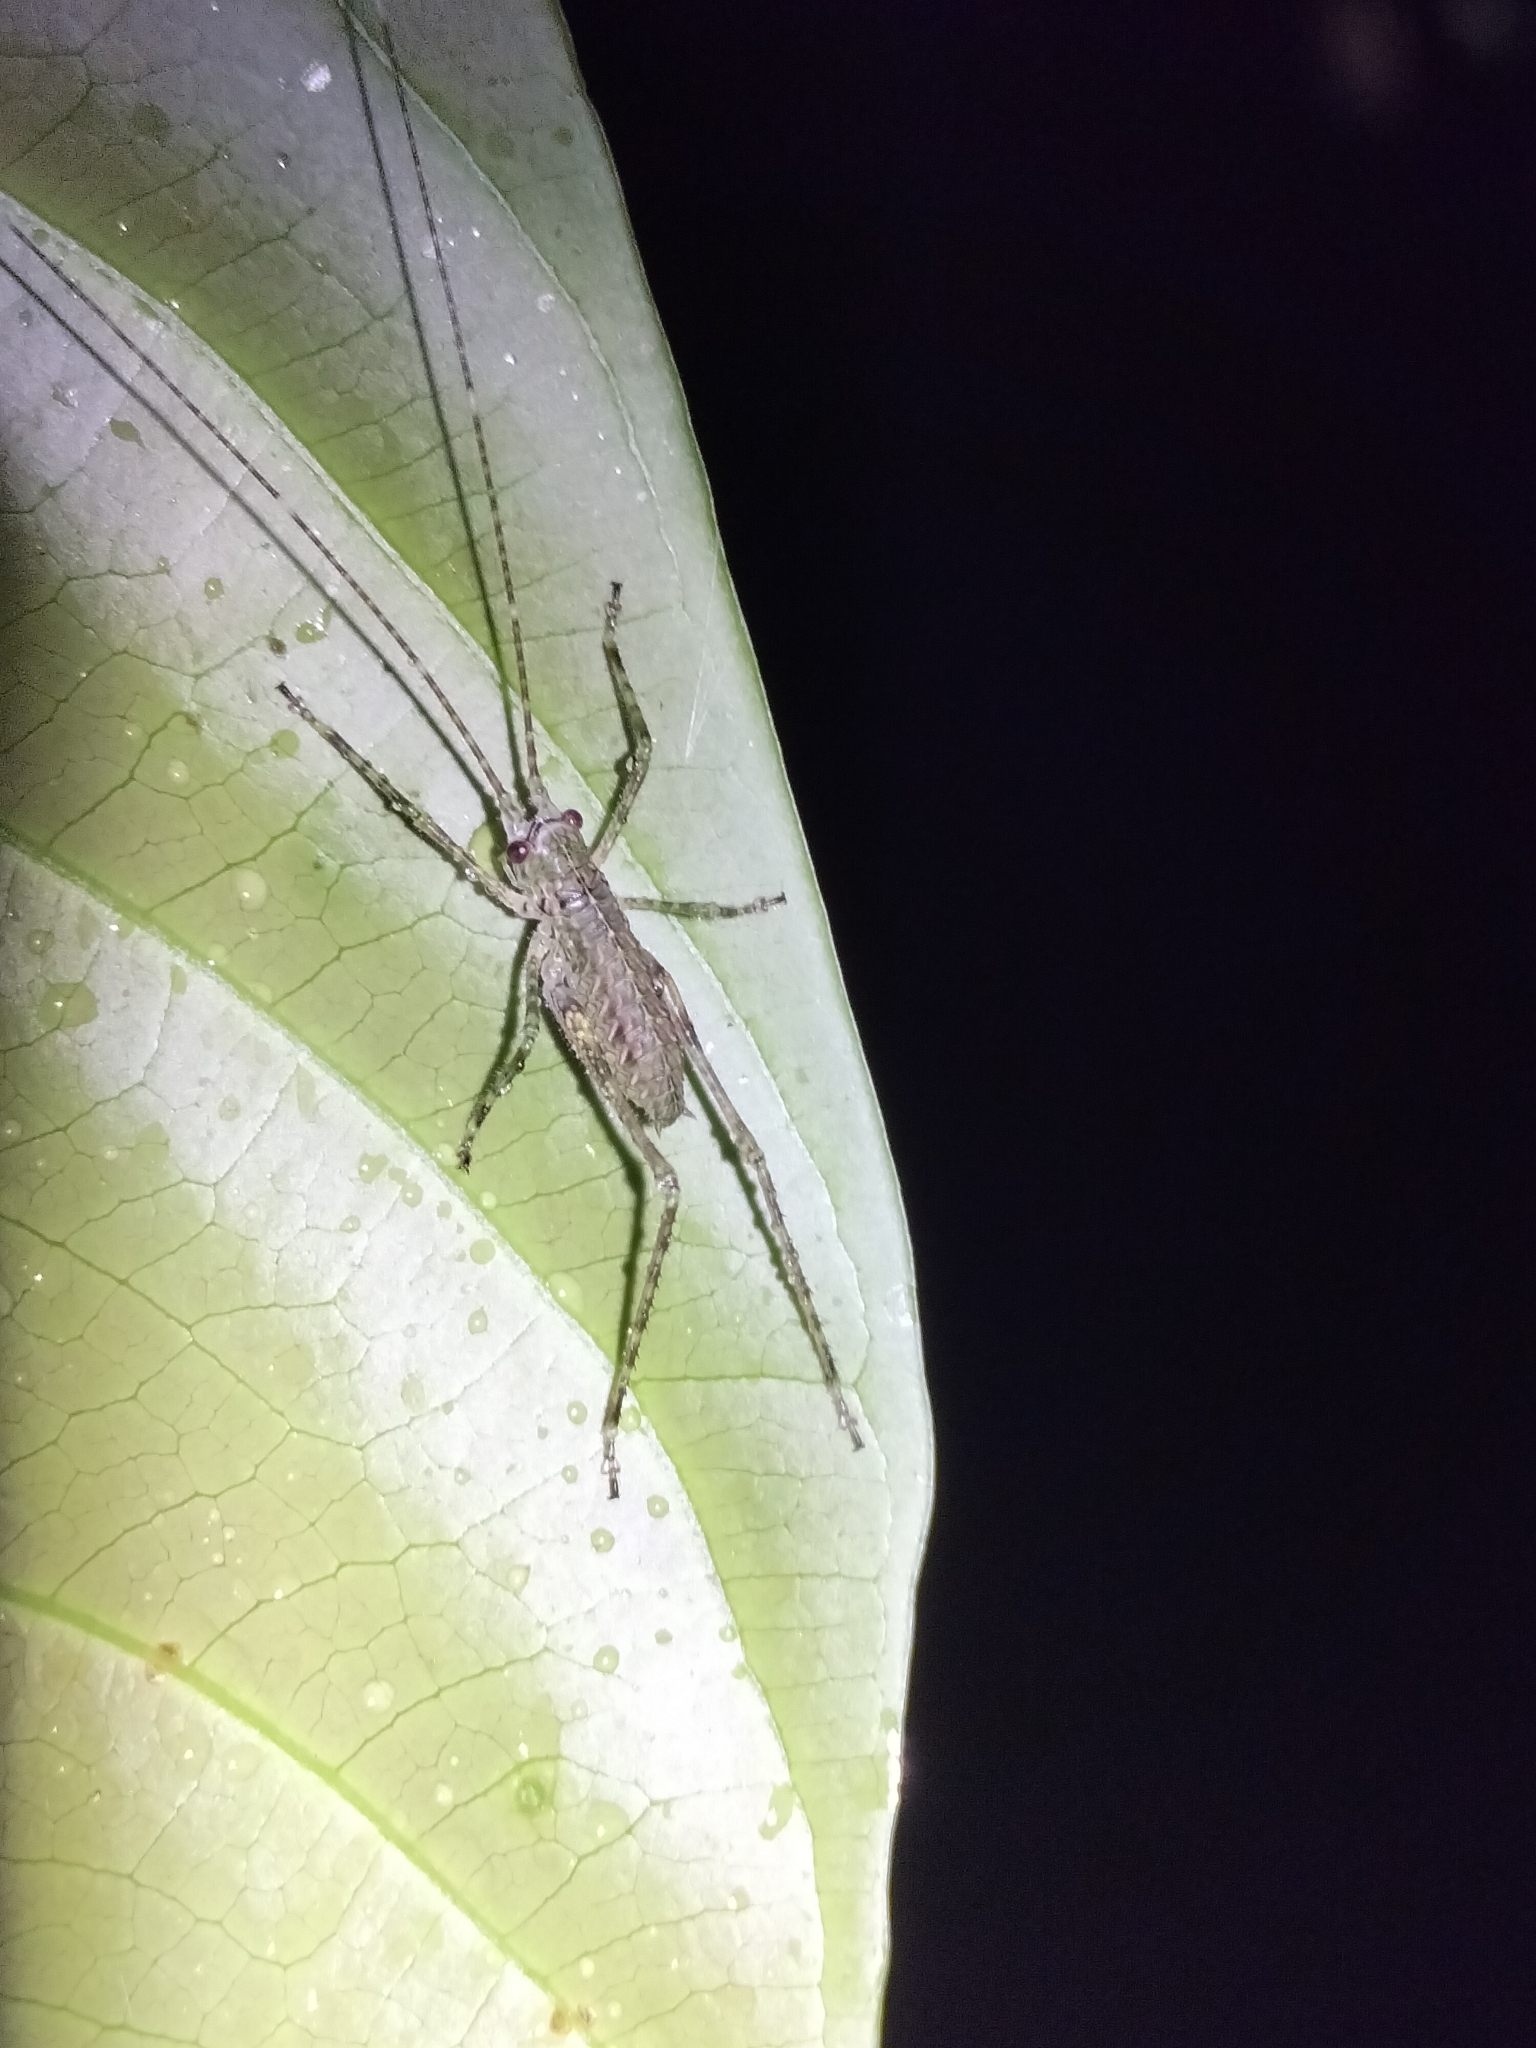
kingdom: Animalia
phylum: Arthropoda
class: Insecta
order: Orthoptera
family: Tettigoniidae
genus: Phricta
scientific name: Phricta spinosa
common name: Giant spiny forest katydid
